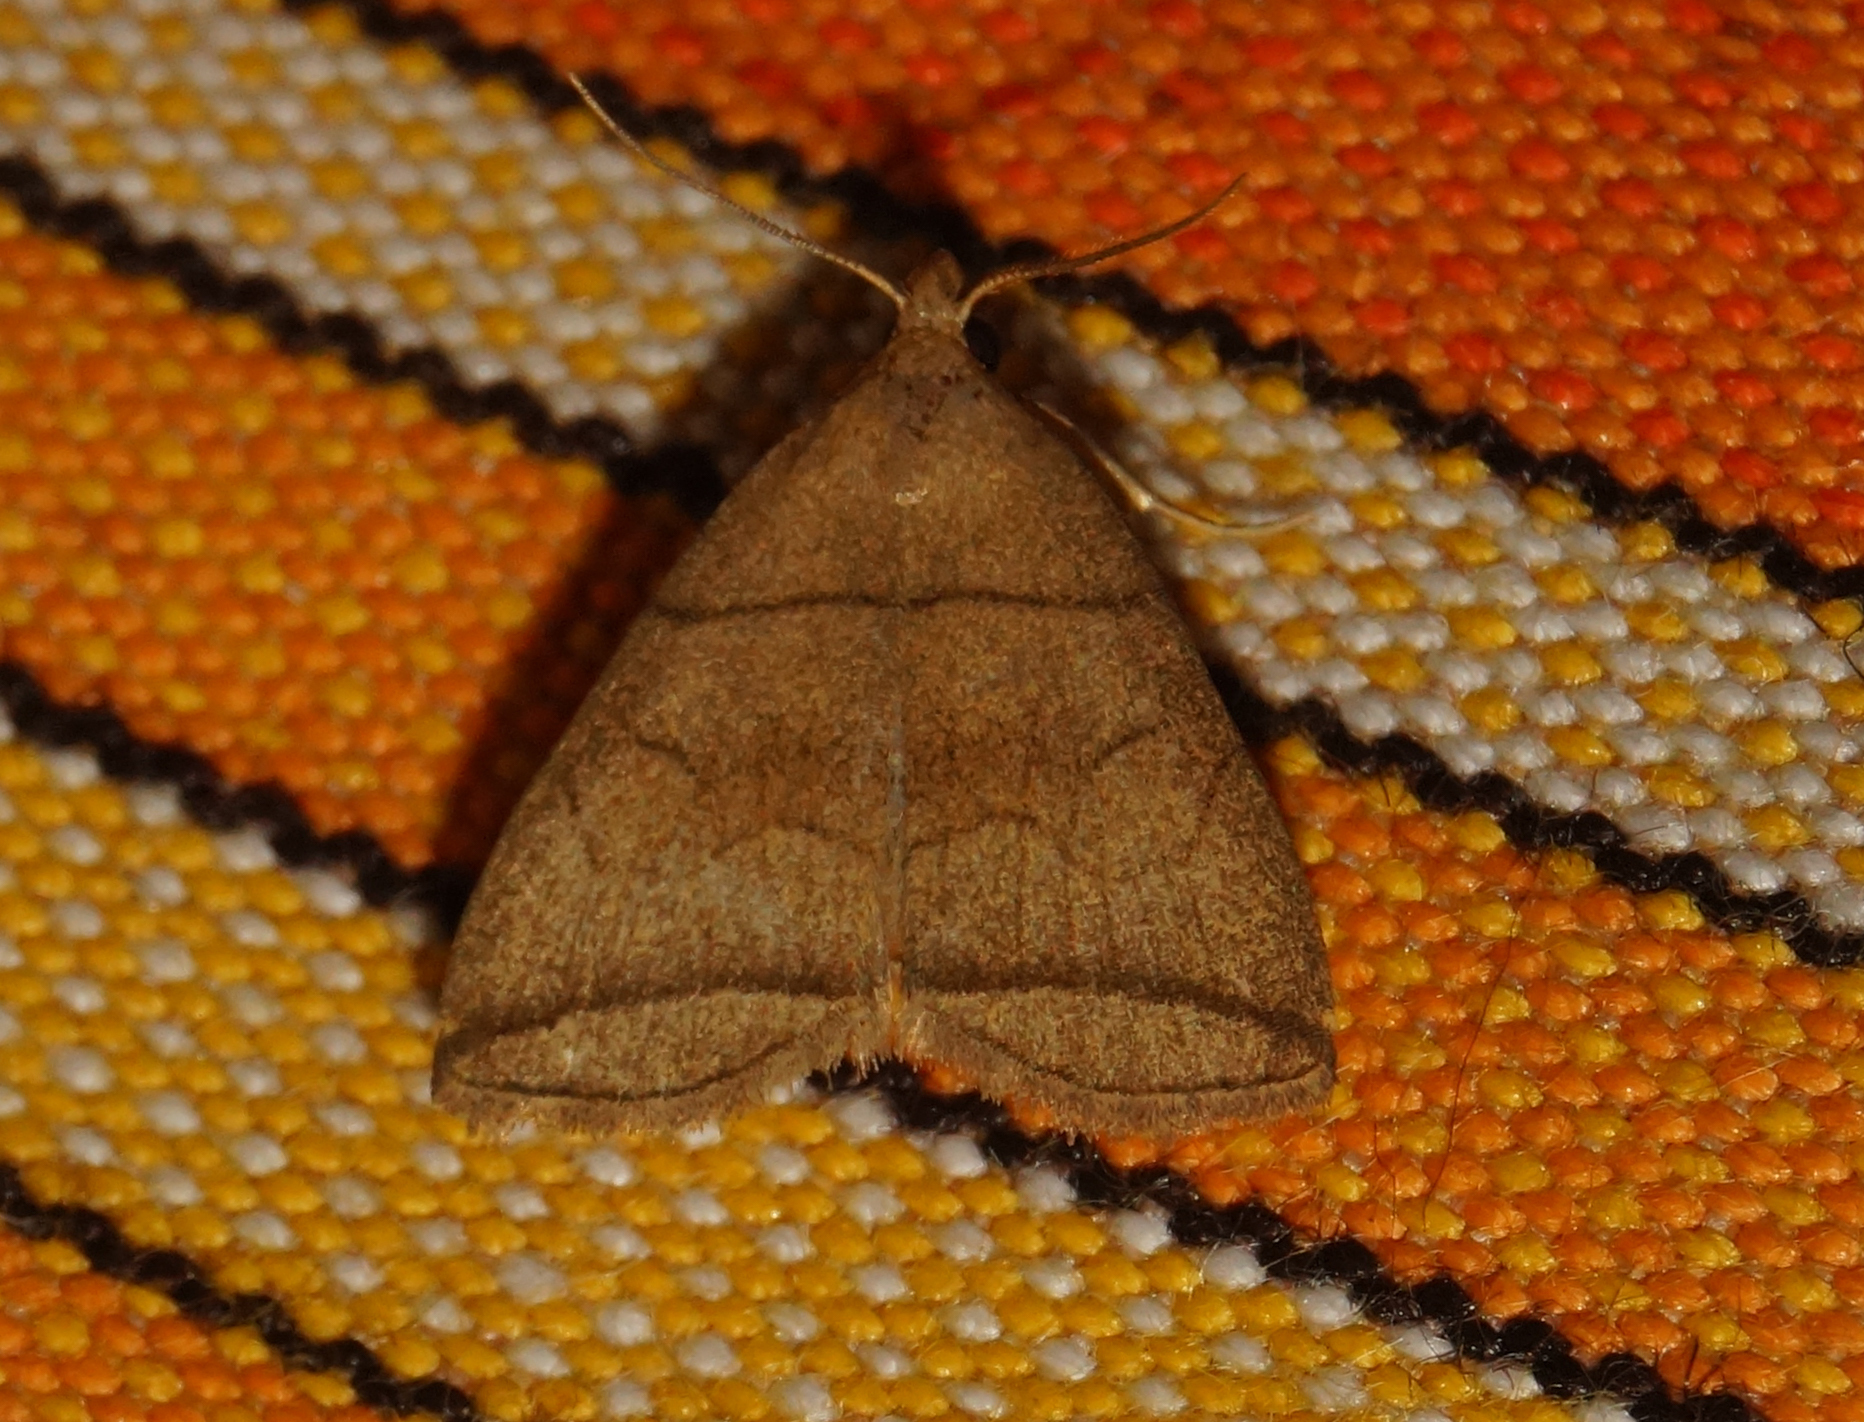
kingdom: Animalia
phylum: Arthropoda
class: Insecta
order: Lepidoptera
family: Erebidae
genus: Herminia
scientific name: Herminia grisealis
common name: Small fan-foot
